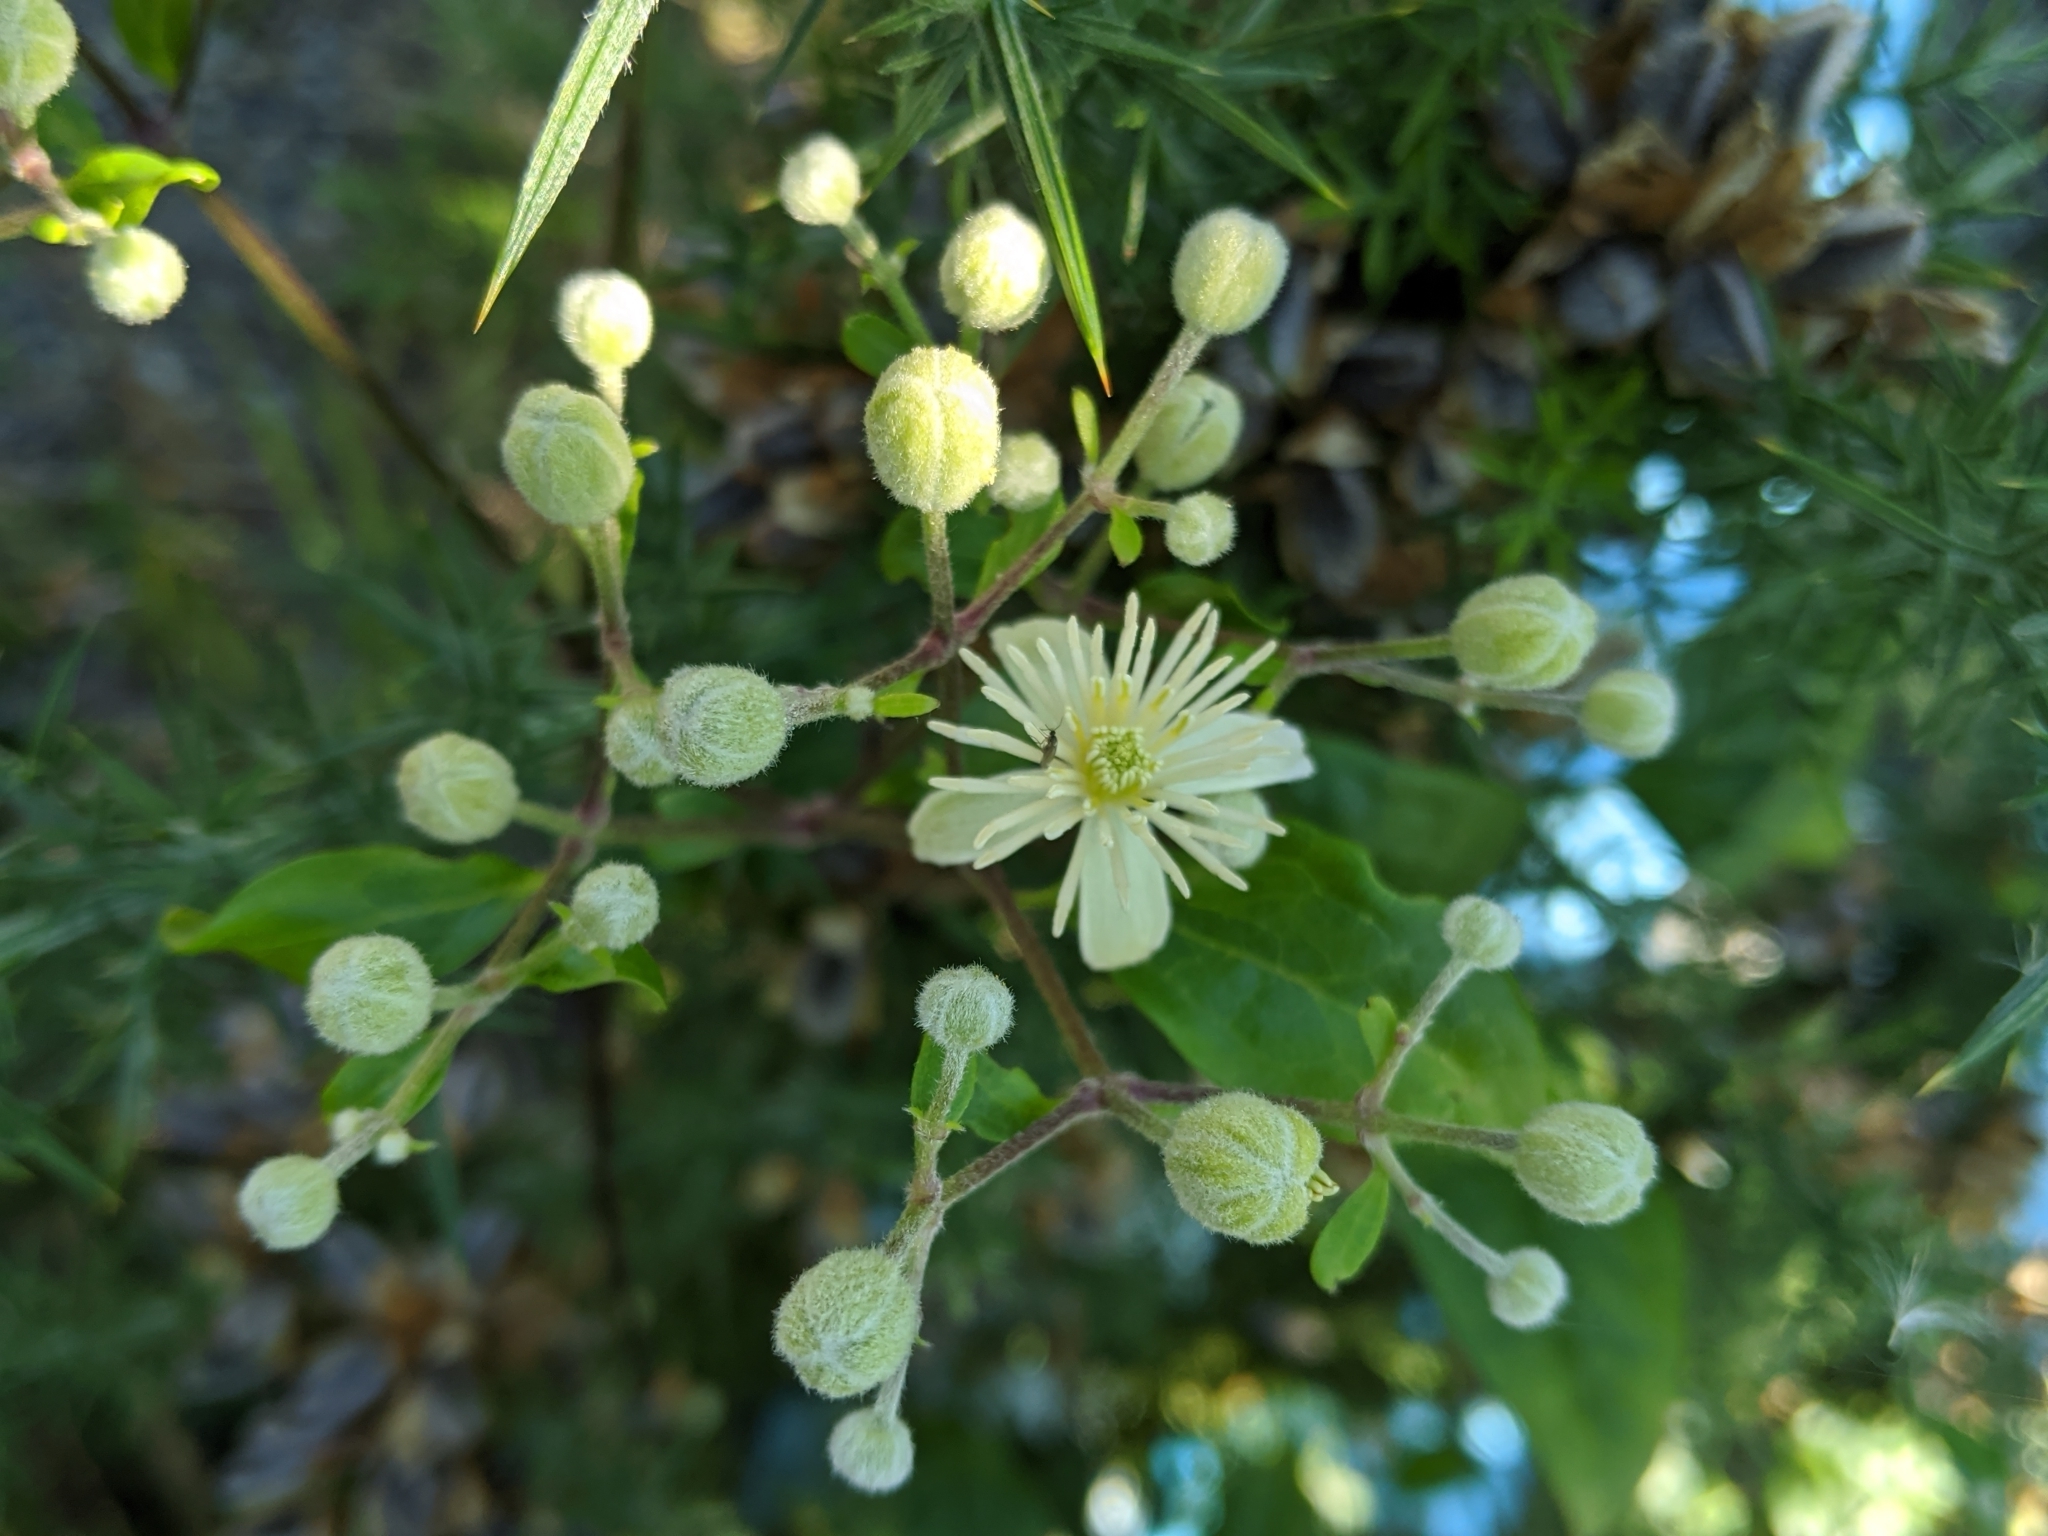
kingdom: Plantae
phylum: Tracheophyta
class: Magnoliopsida
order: Ranunculales
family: Ranunculaceae
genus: Clematis
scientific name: Clematis vitalba
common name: Evergreen clematis
